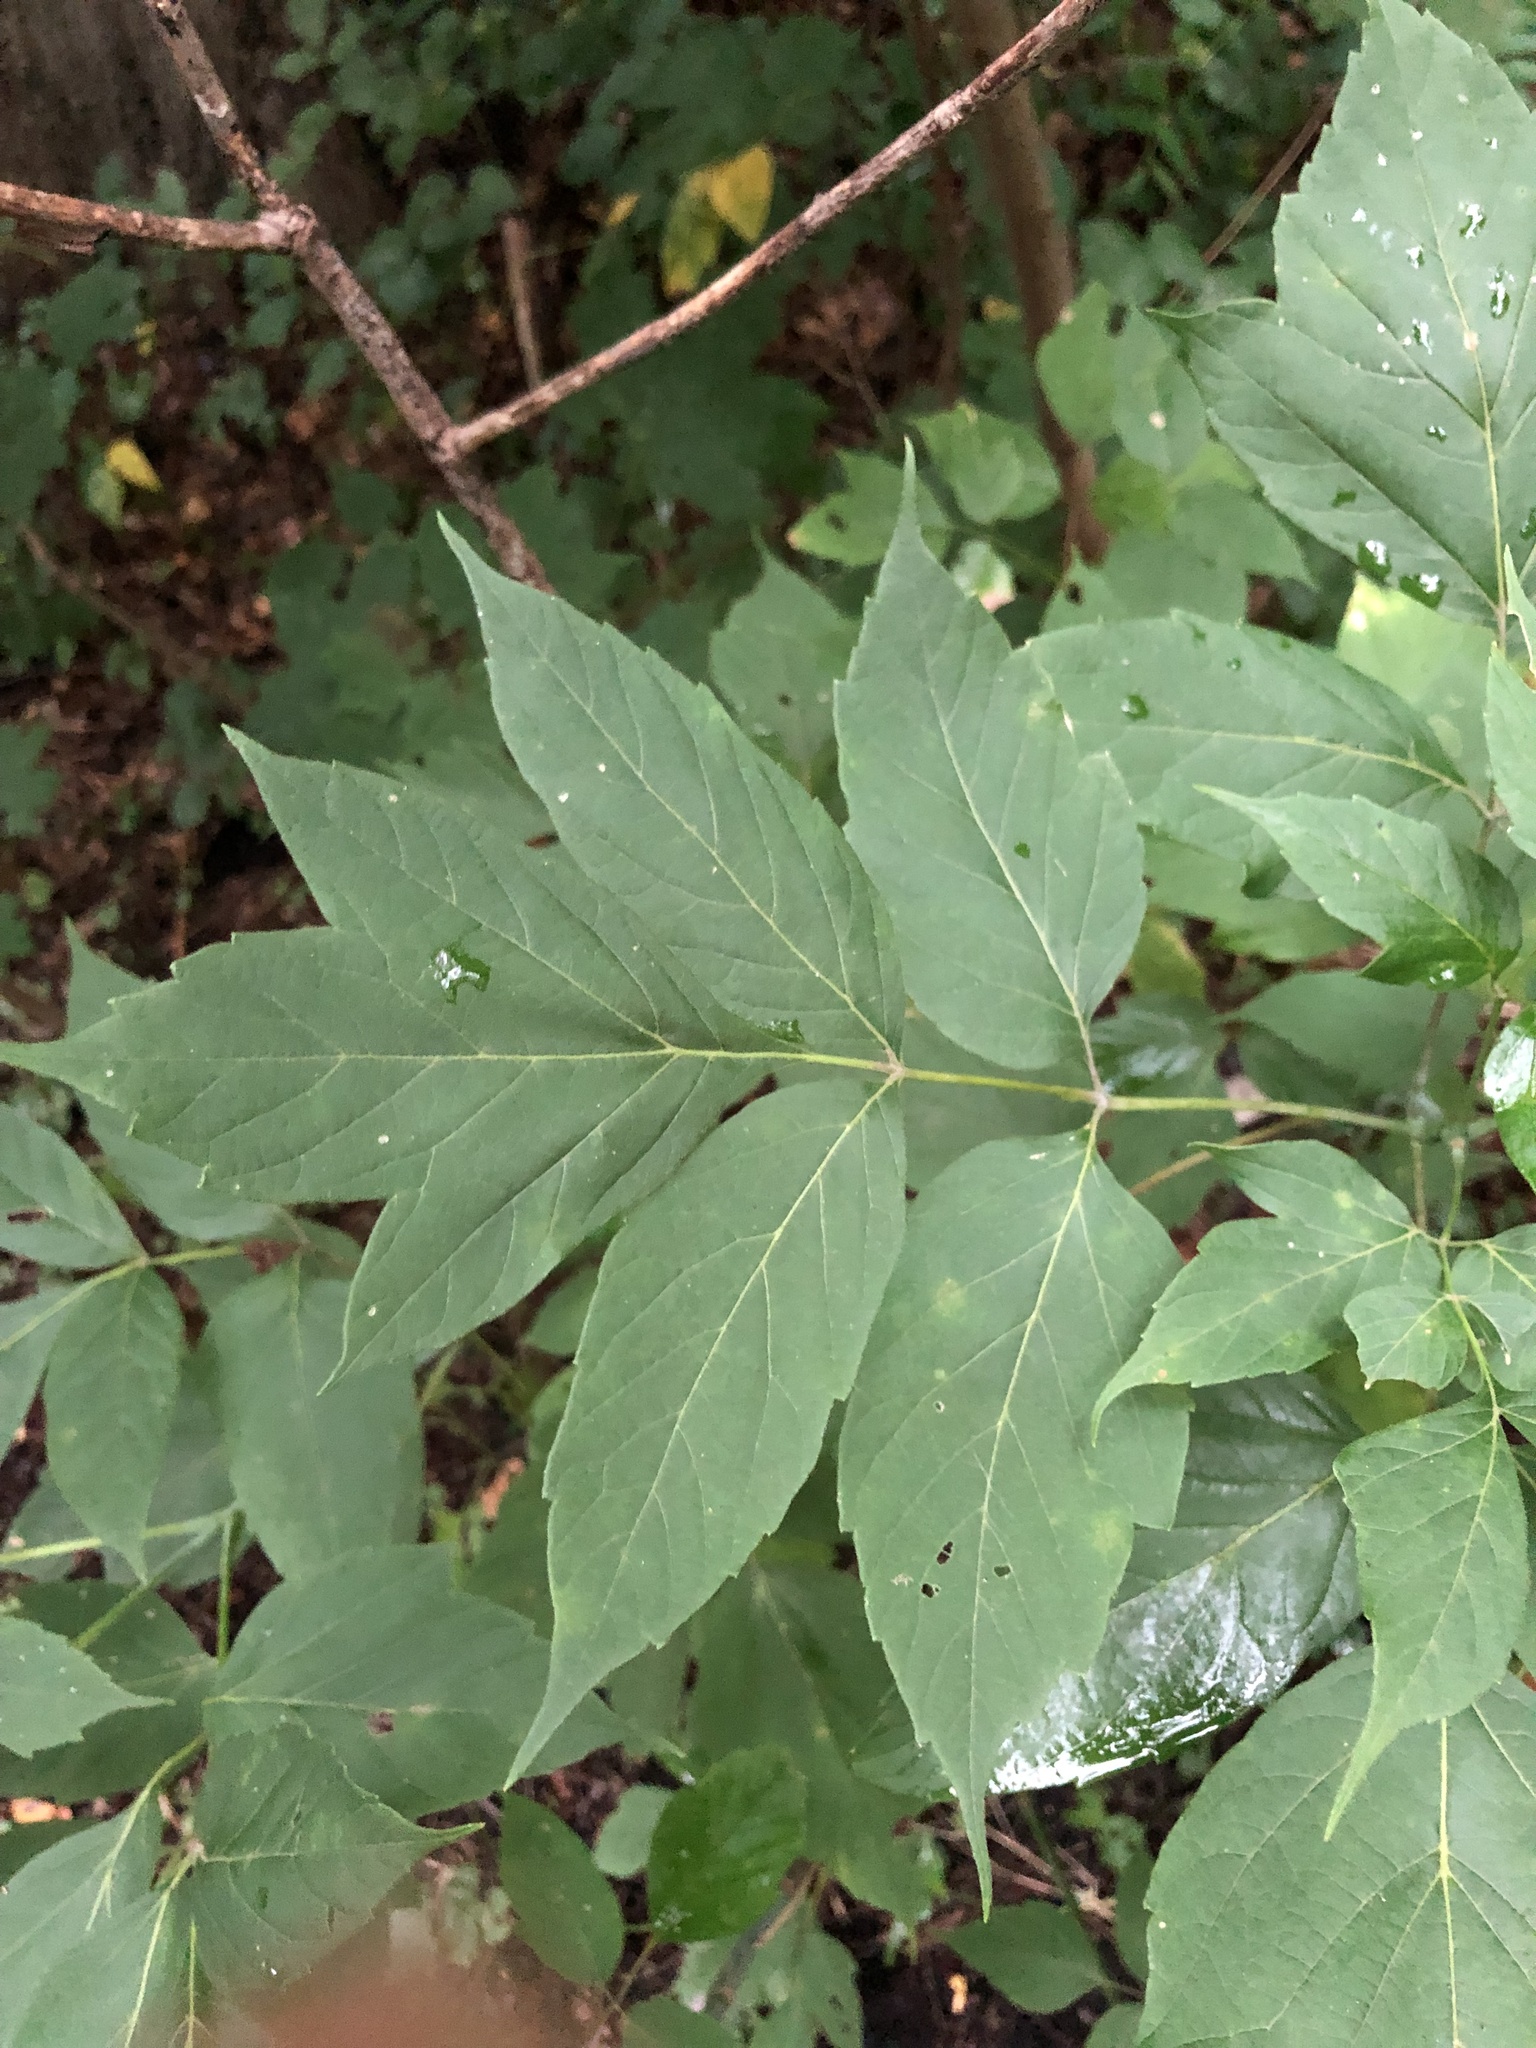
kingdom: Plantae
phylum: Tracheophyta
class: Magnoliopsida
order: Sapindales
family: Sapindaceae
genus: Acer
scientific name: Acer negundo
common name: Ashleaf maple
